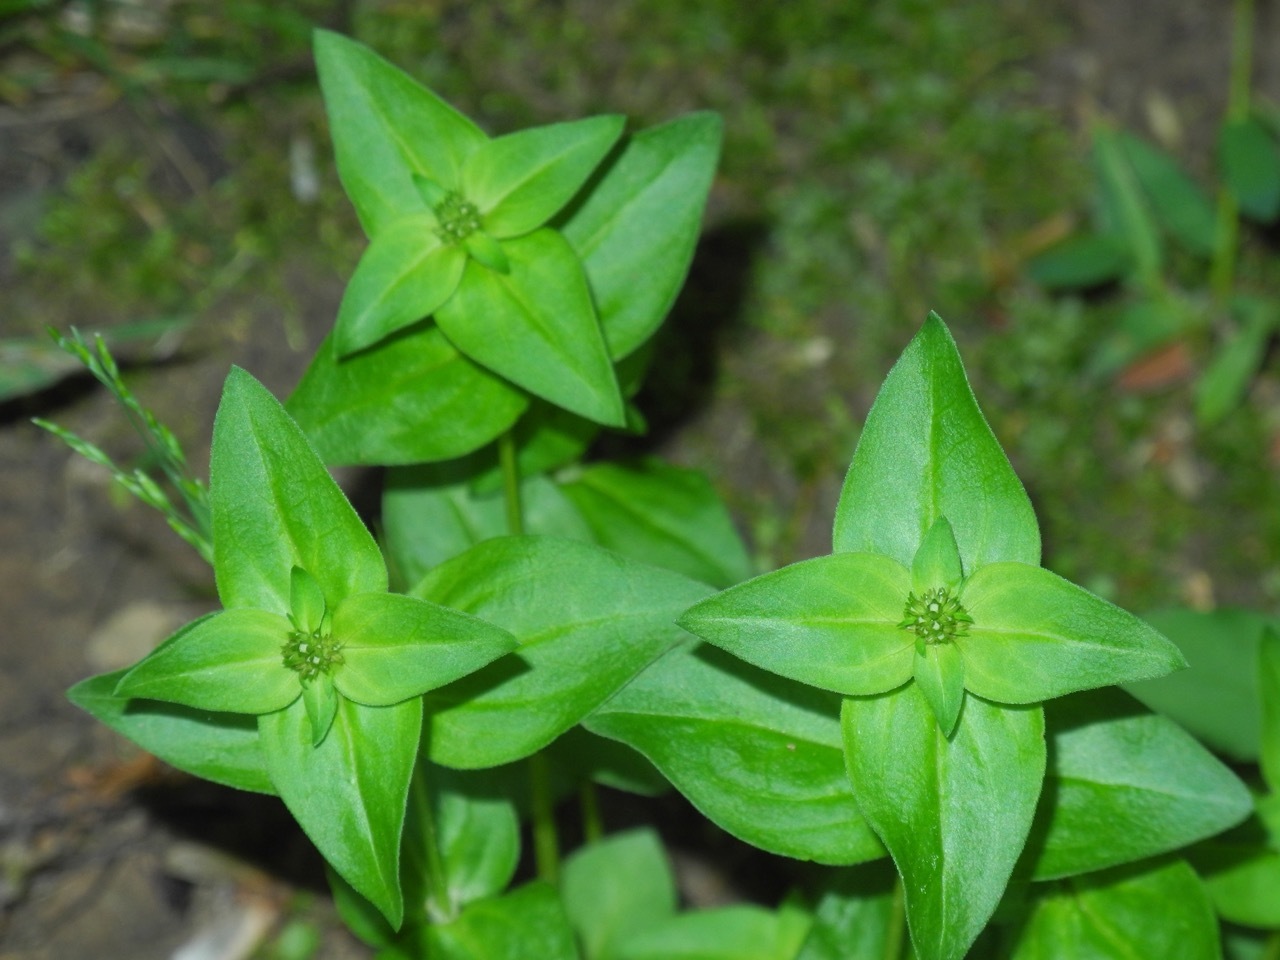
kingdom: Plantae
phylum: Tracheophyta
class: Magnoliopsida
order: Gentianales
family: Rubiaceae
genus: Houstonia
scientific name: Houstonia purpurea
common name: Summer bluet
